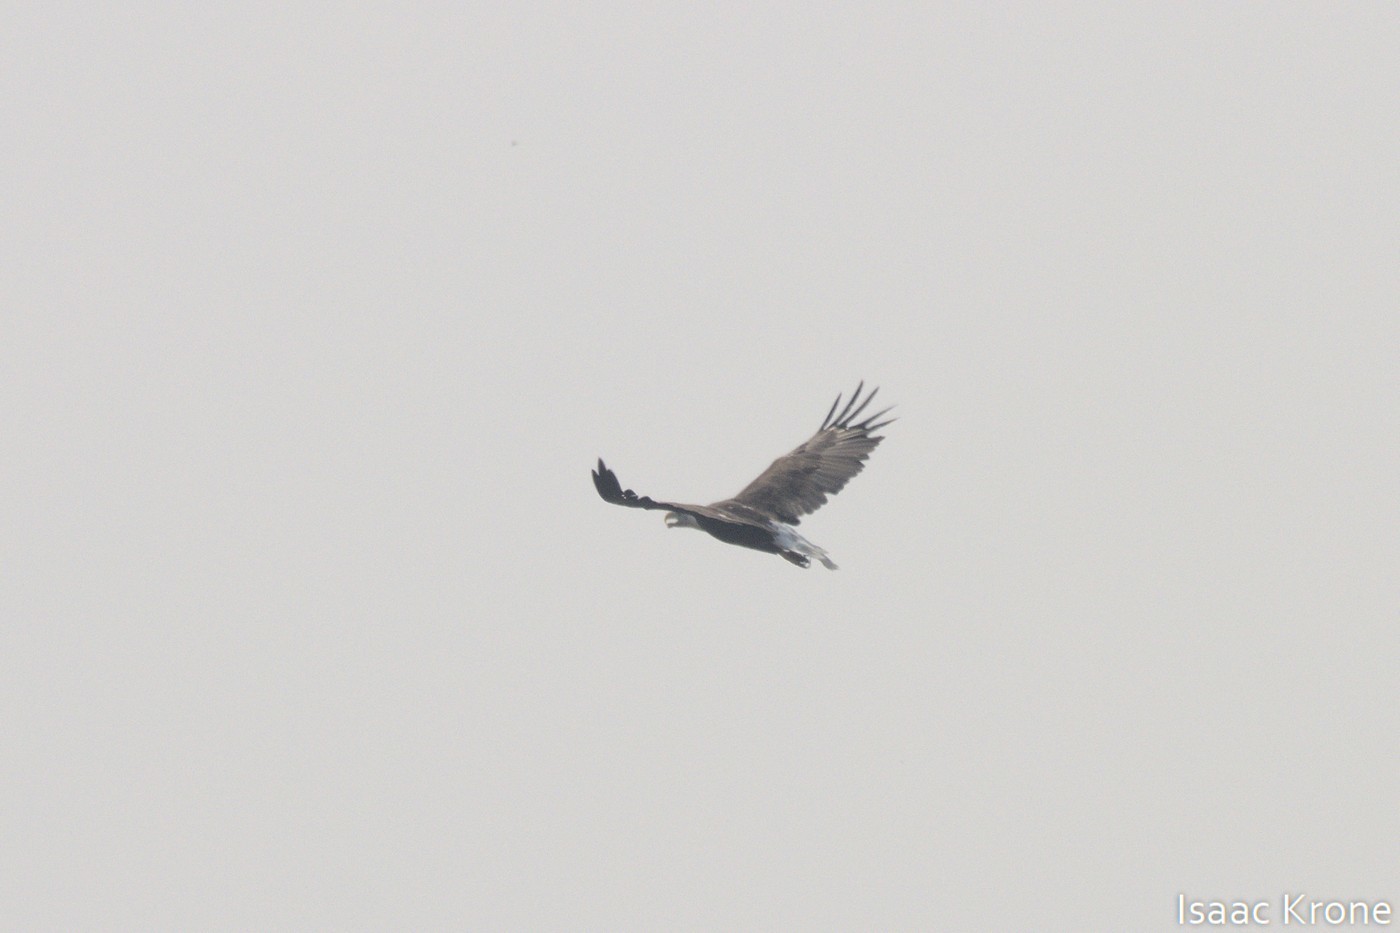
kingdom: Animalia
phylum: Chordata
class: Aves
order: Accipitriformes
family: Accipitridae
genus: Haliaeetus
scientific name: Haliaeetus leucocephalus
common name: Bald eagle
